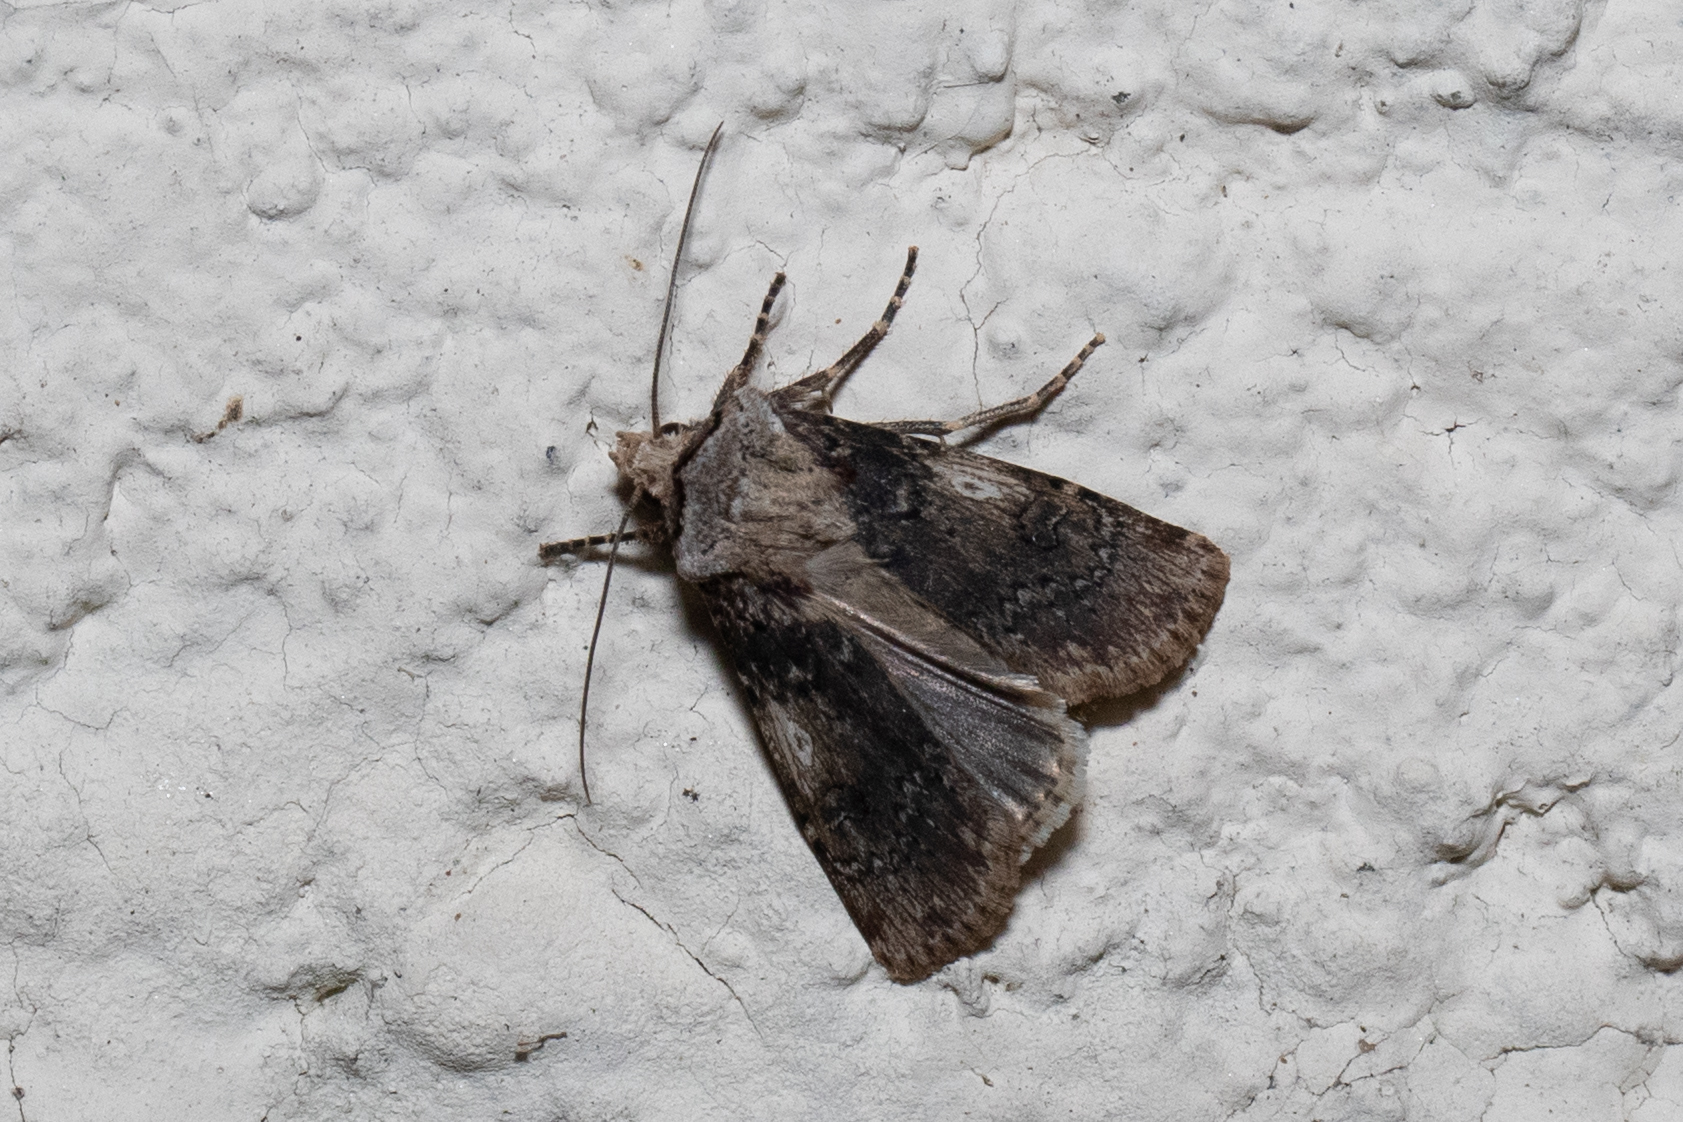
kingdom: Animalia
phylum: Arthropoda
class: Insecta
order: Lepidoptera
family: Noctuidae
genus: Agrotis
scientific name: Agrotis puta
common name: Shuttle-shaped dart
